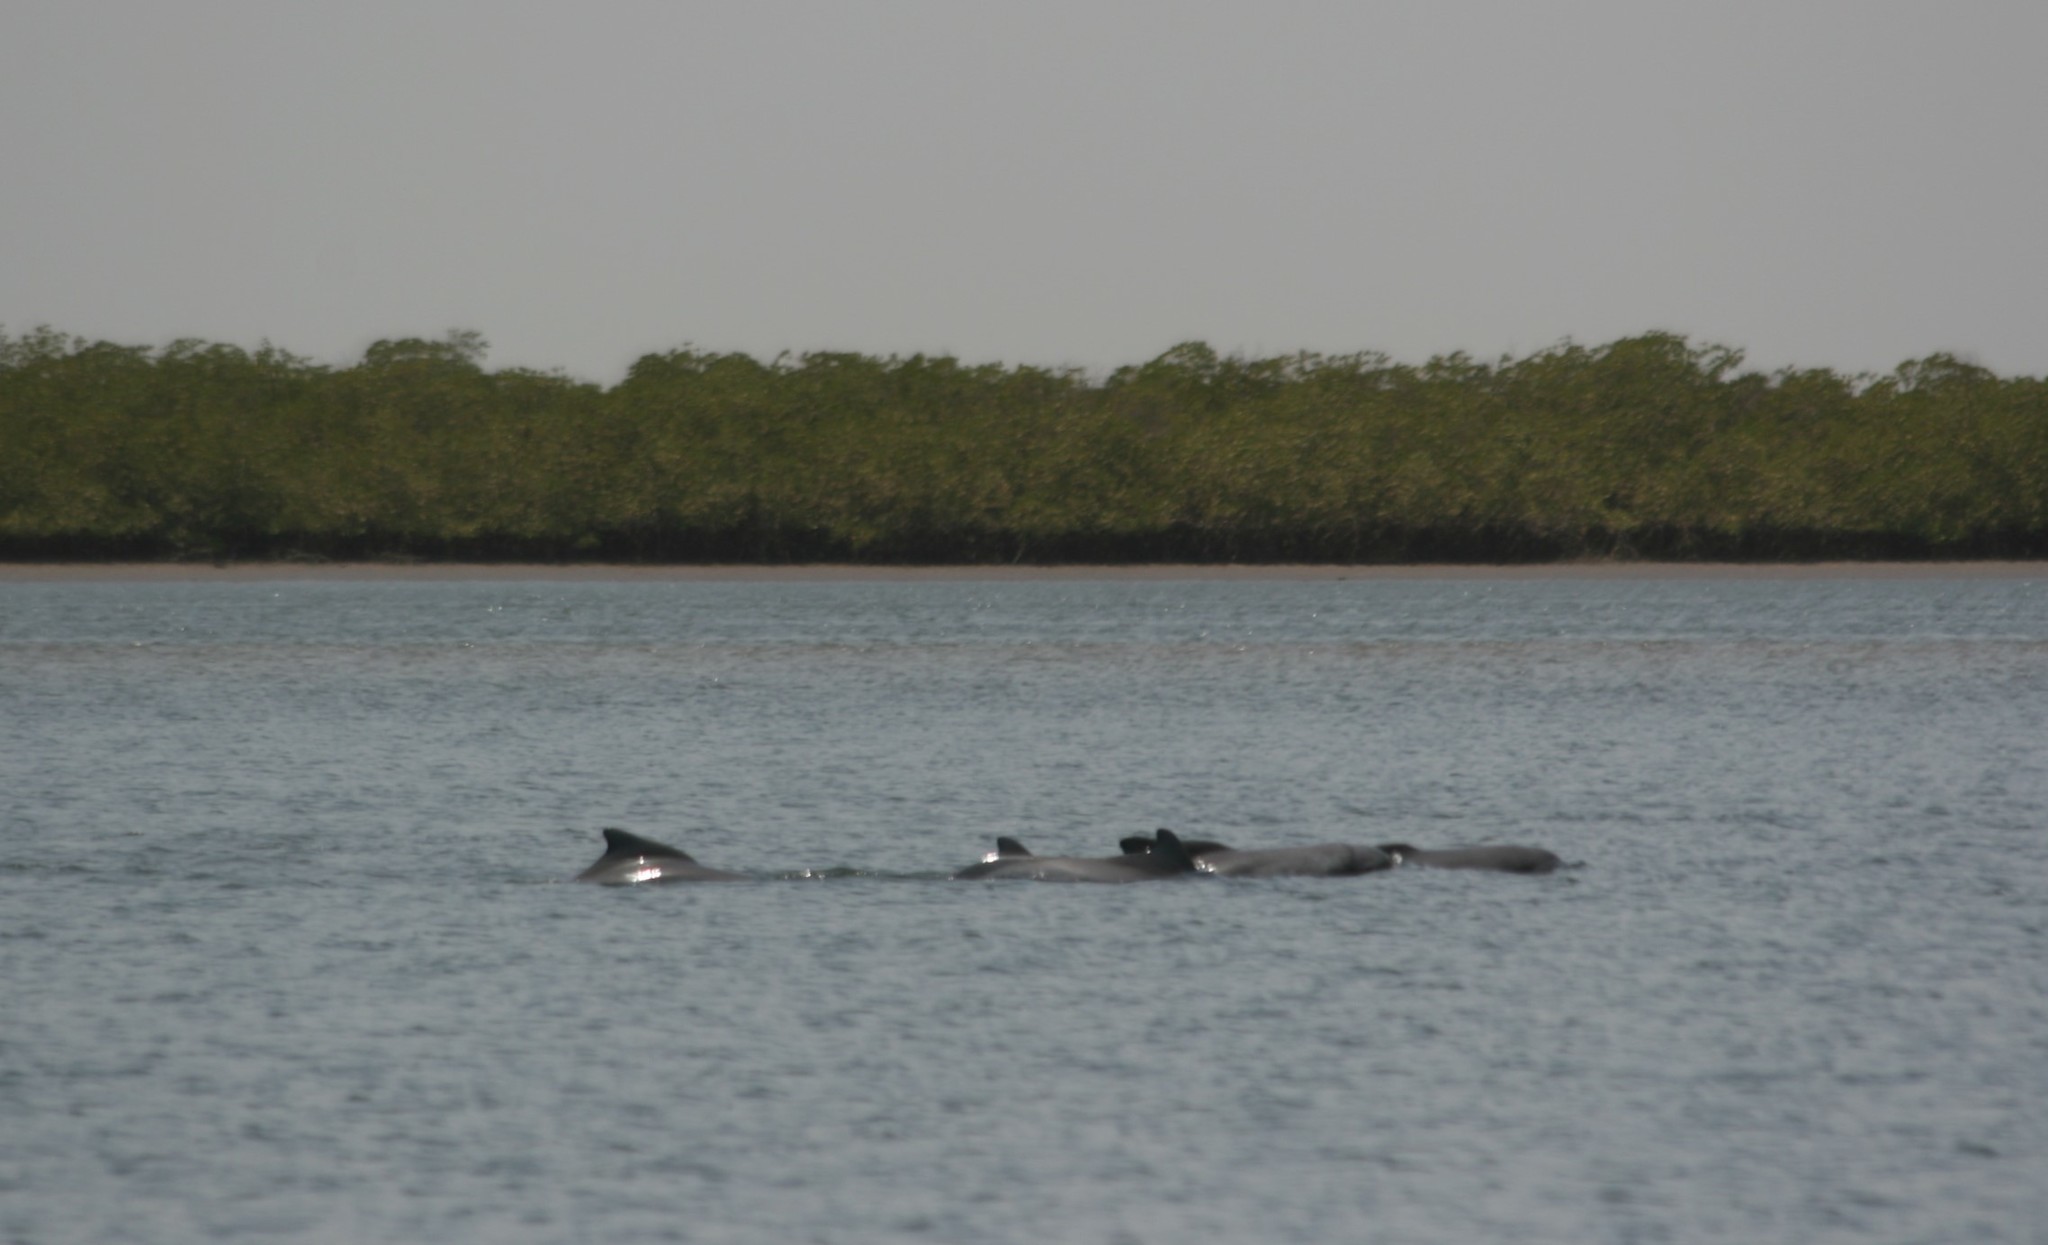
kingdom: Animalia
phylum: Chordata
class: Mammalia
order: Cetacea
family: Delphinidae
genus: Sousa
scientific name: Sousa teuszii
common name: Atlantic humpbacked dolphin
